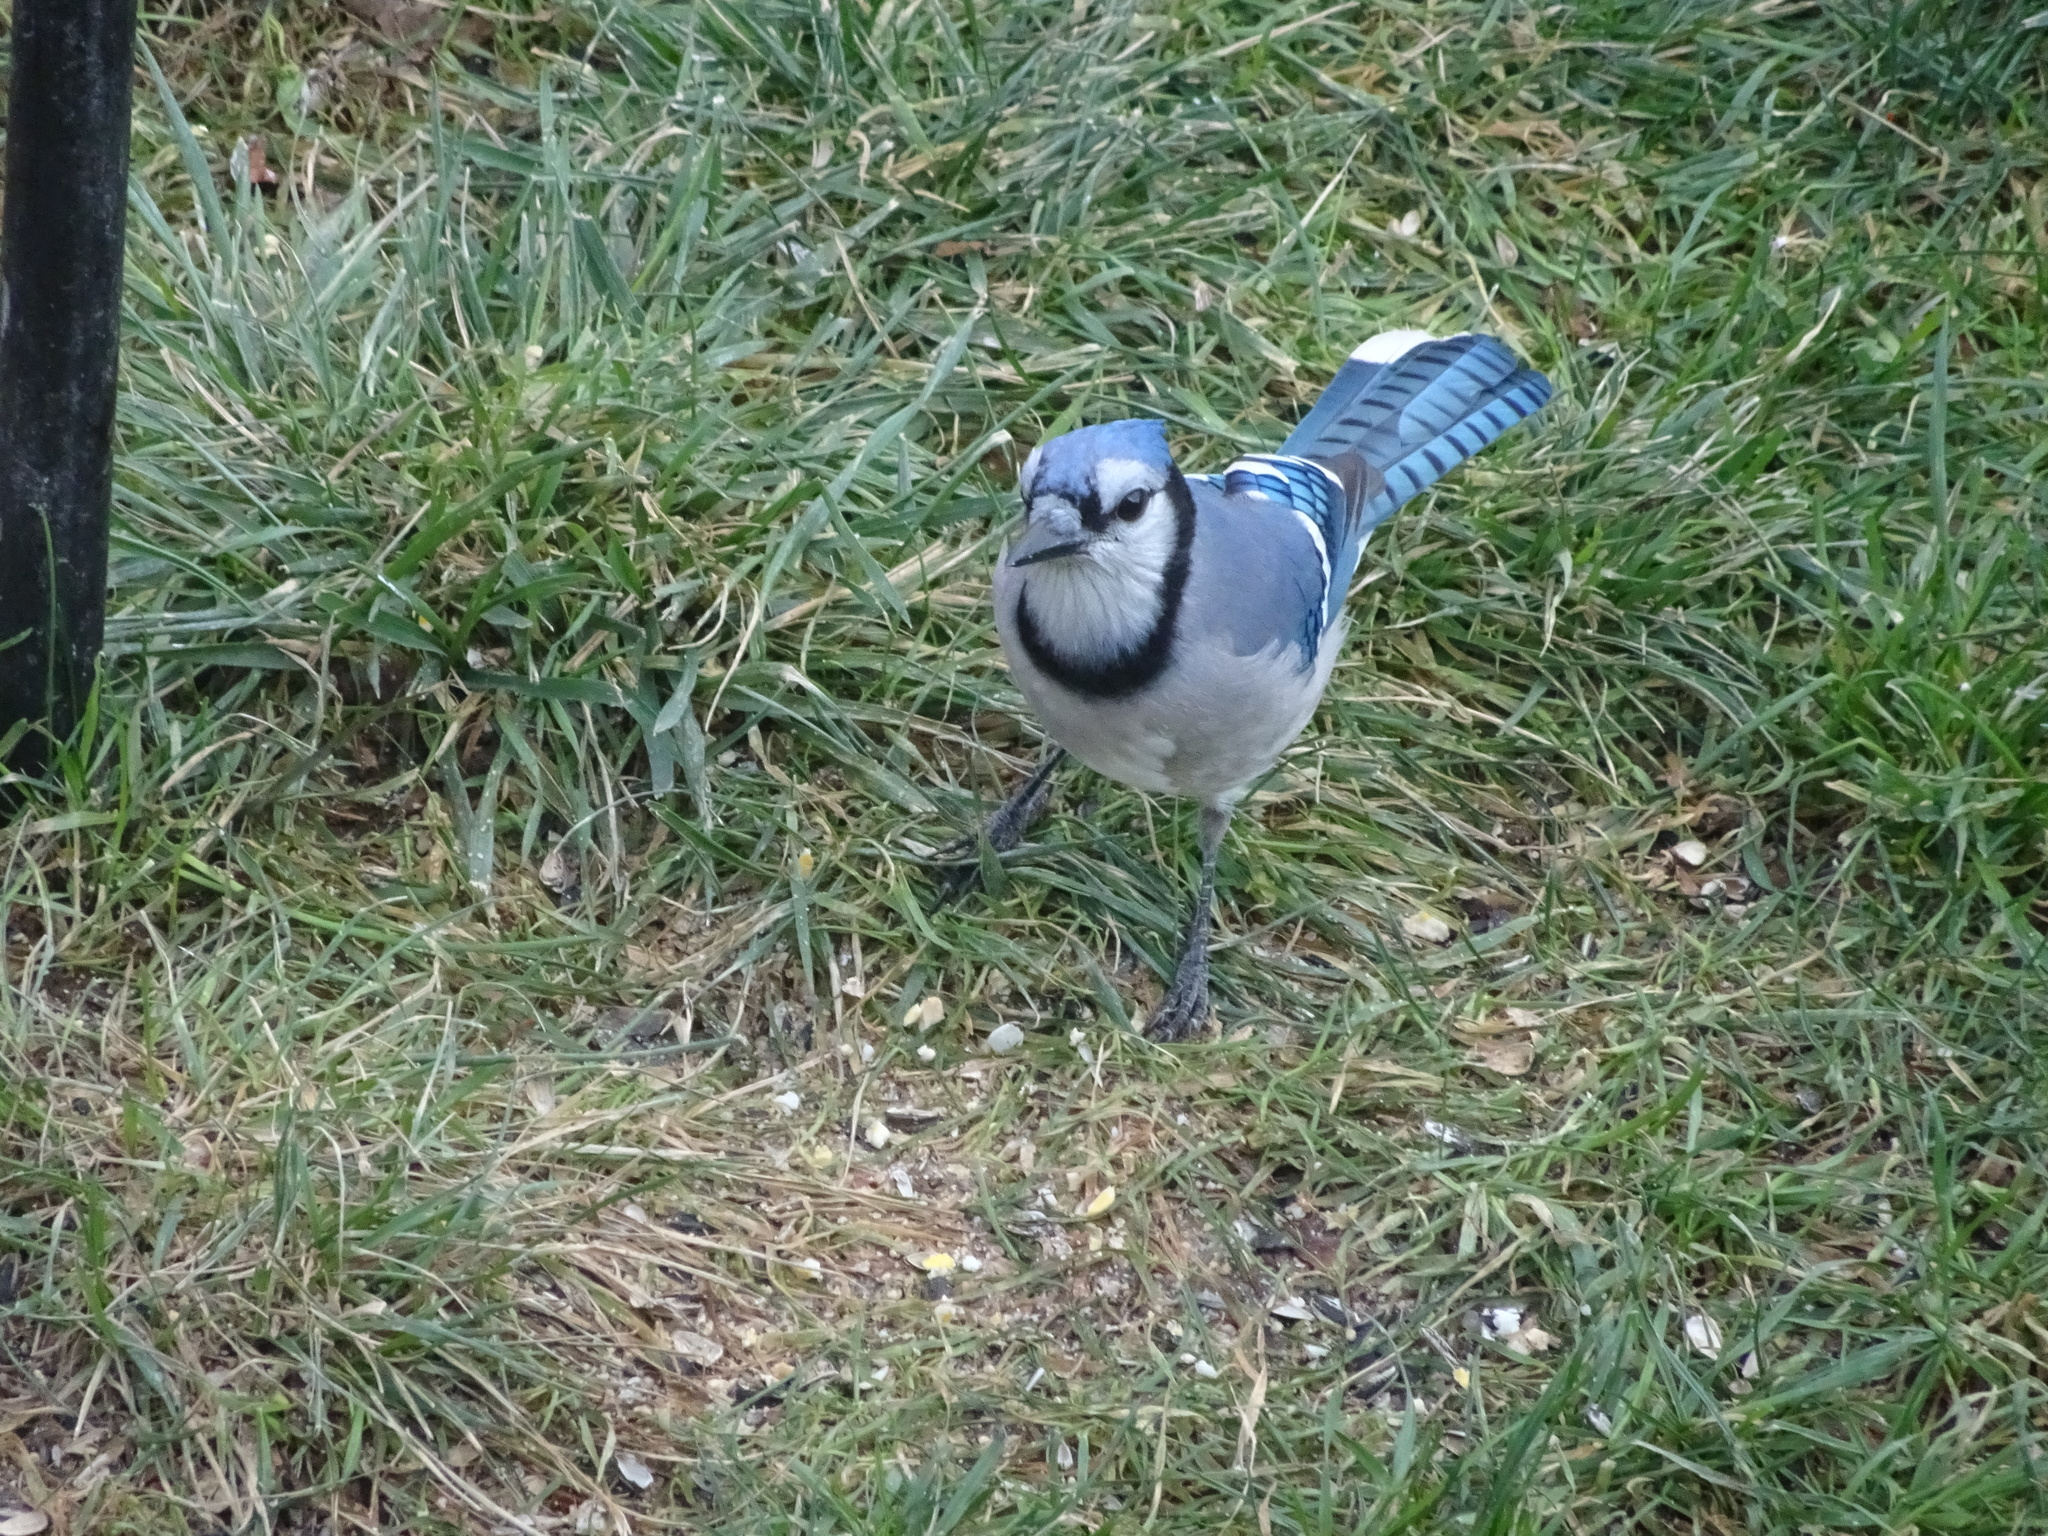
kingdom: Animalia
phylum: Chordata
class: Aves
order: Passeriformes
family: Corvidae
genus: Cyanocitta
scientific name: Cyanocitta cristata
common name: Blue jay
